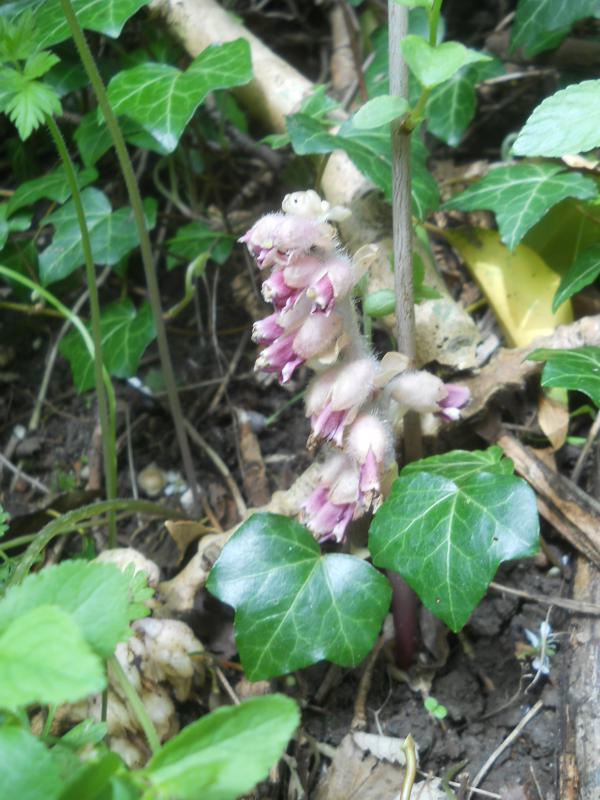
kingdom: Plantae
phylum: Tracheophyta
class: Magnoliopsida
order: Lamiales
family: Orobanchaceae
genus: Lathraea
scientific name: Lathraea squamaria
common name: Toothwort
